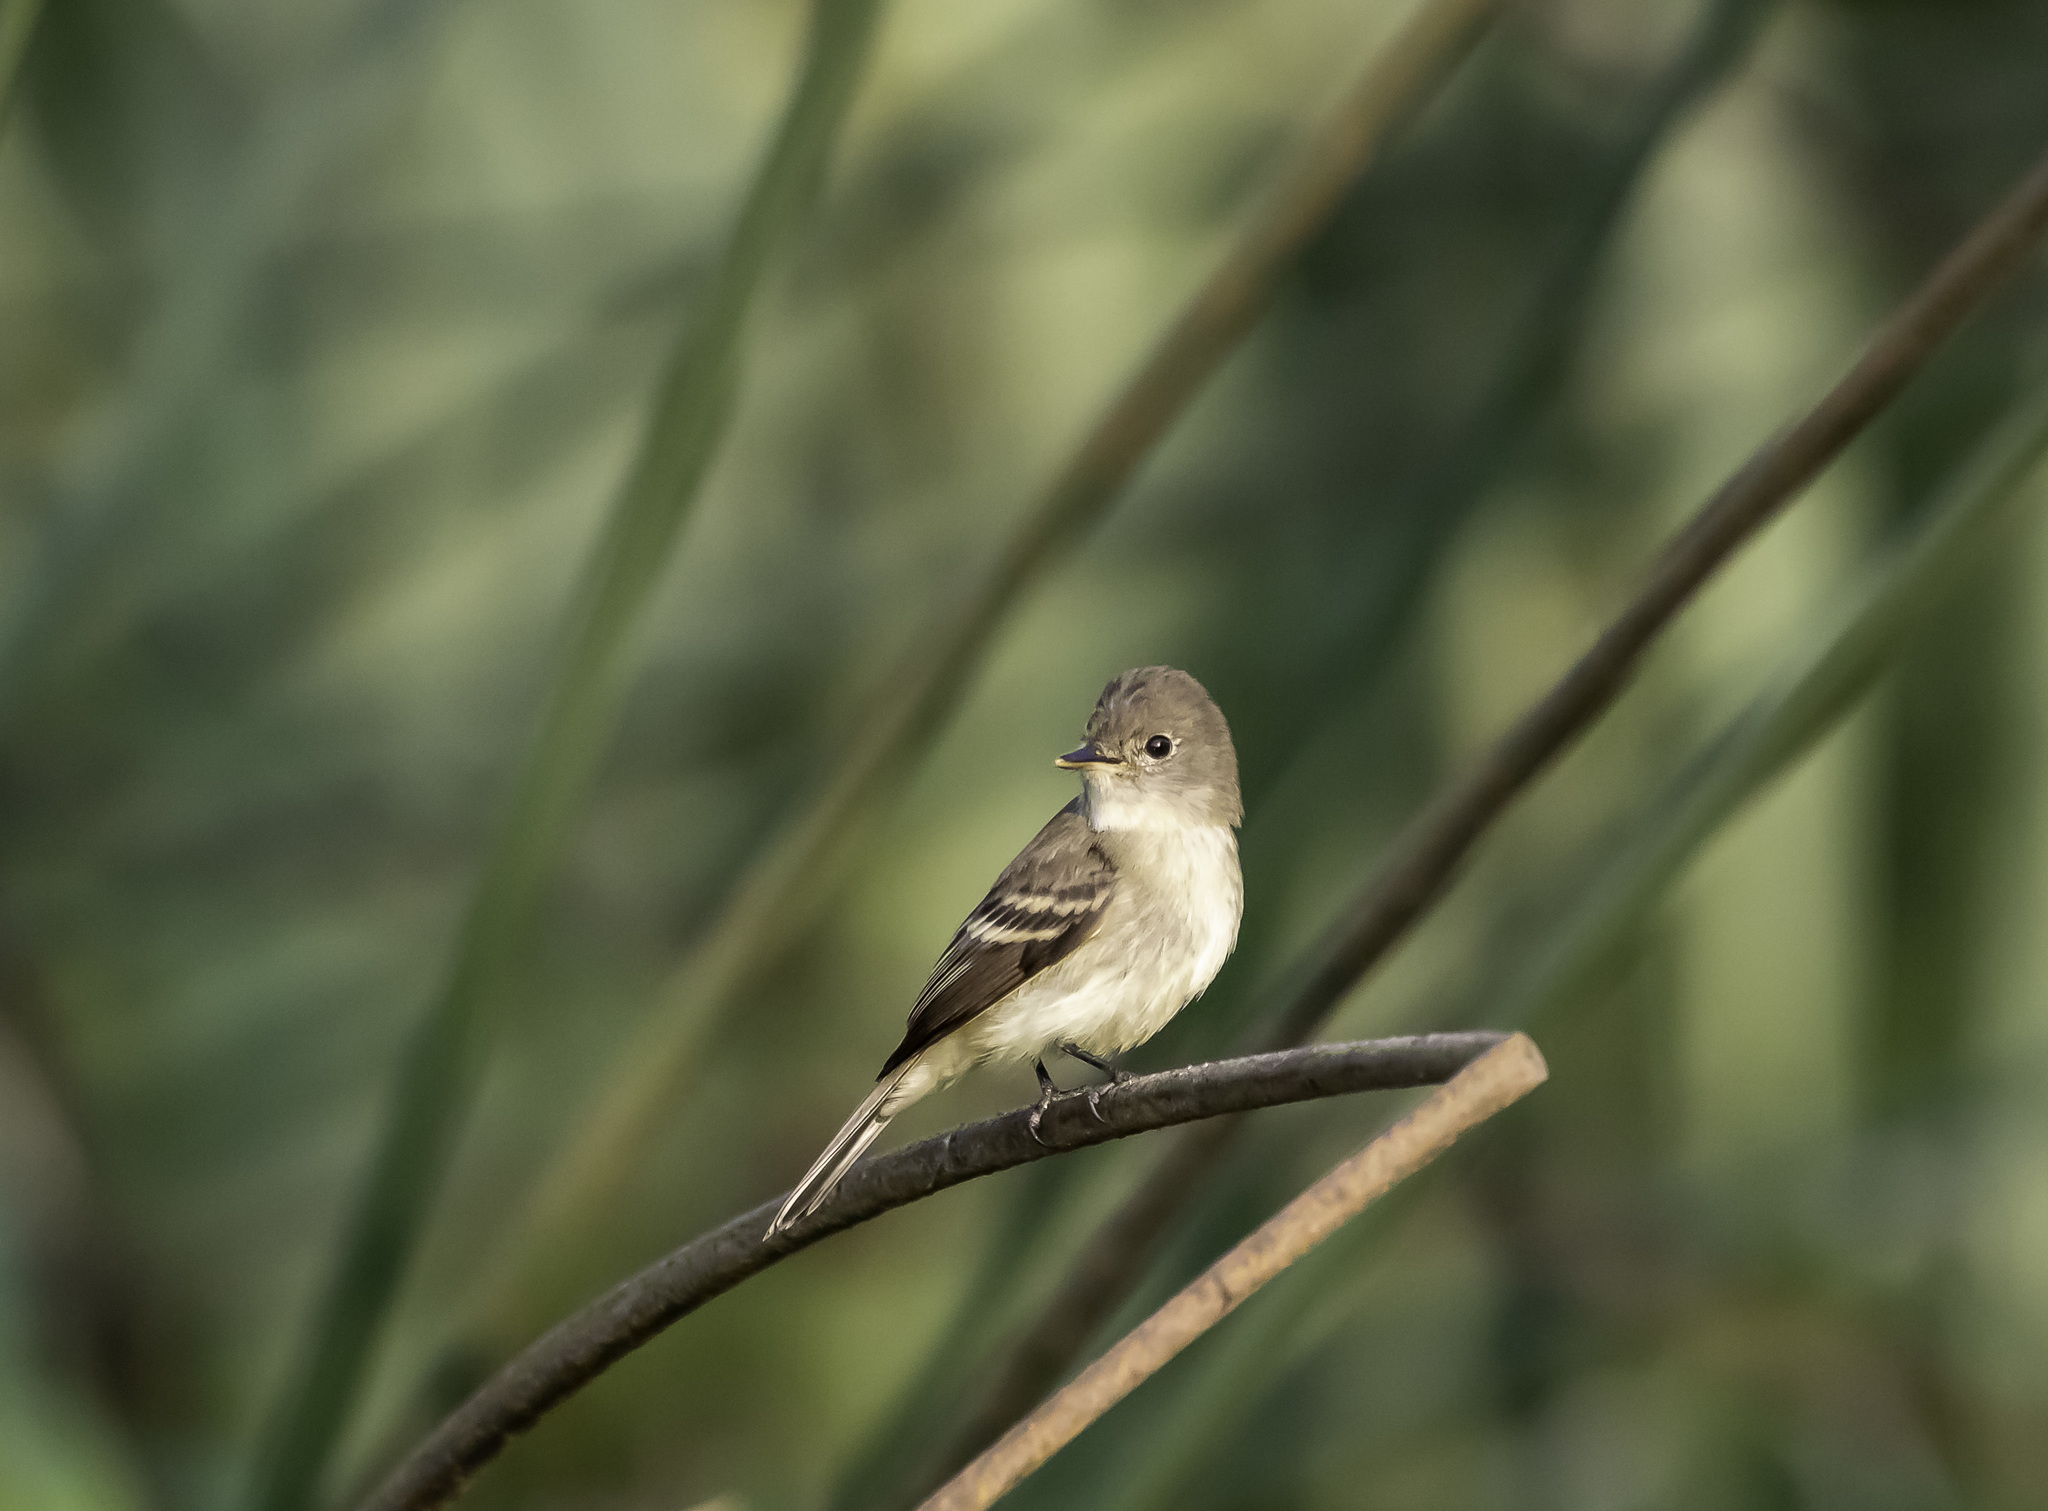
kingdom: Animalia
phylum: Chordata
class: Aves
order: Passeriformes
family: Tyrannidae
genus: Empidonax
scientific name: Empidonax traillii
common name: Willow flycatcher
